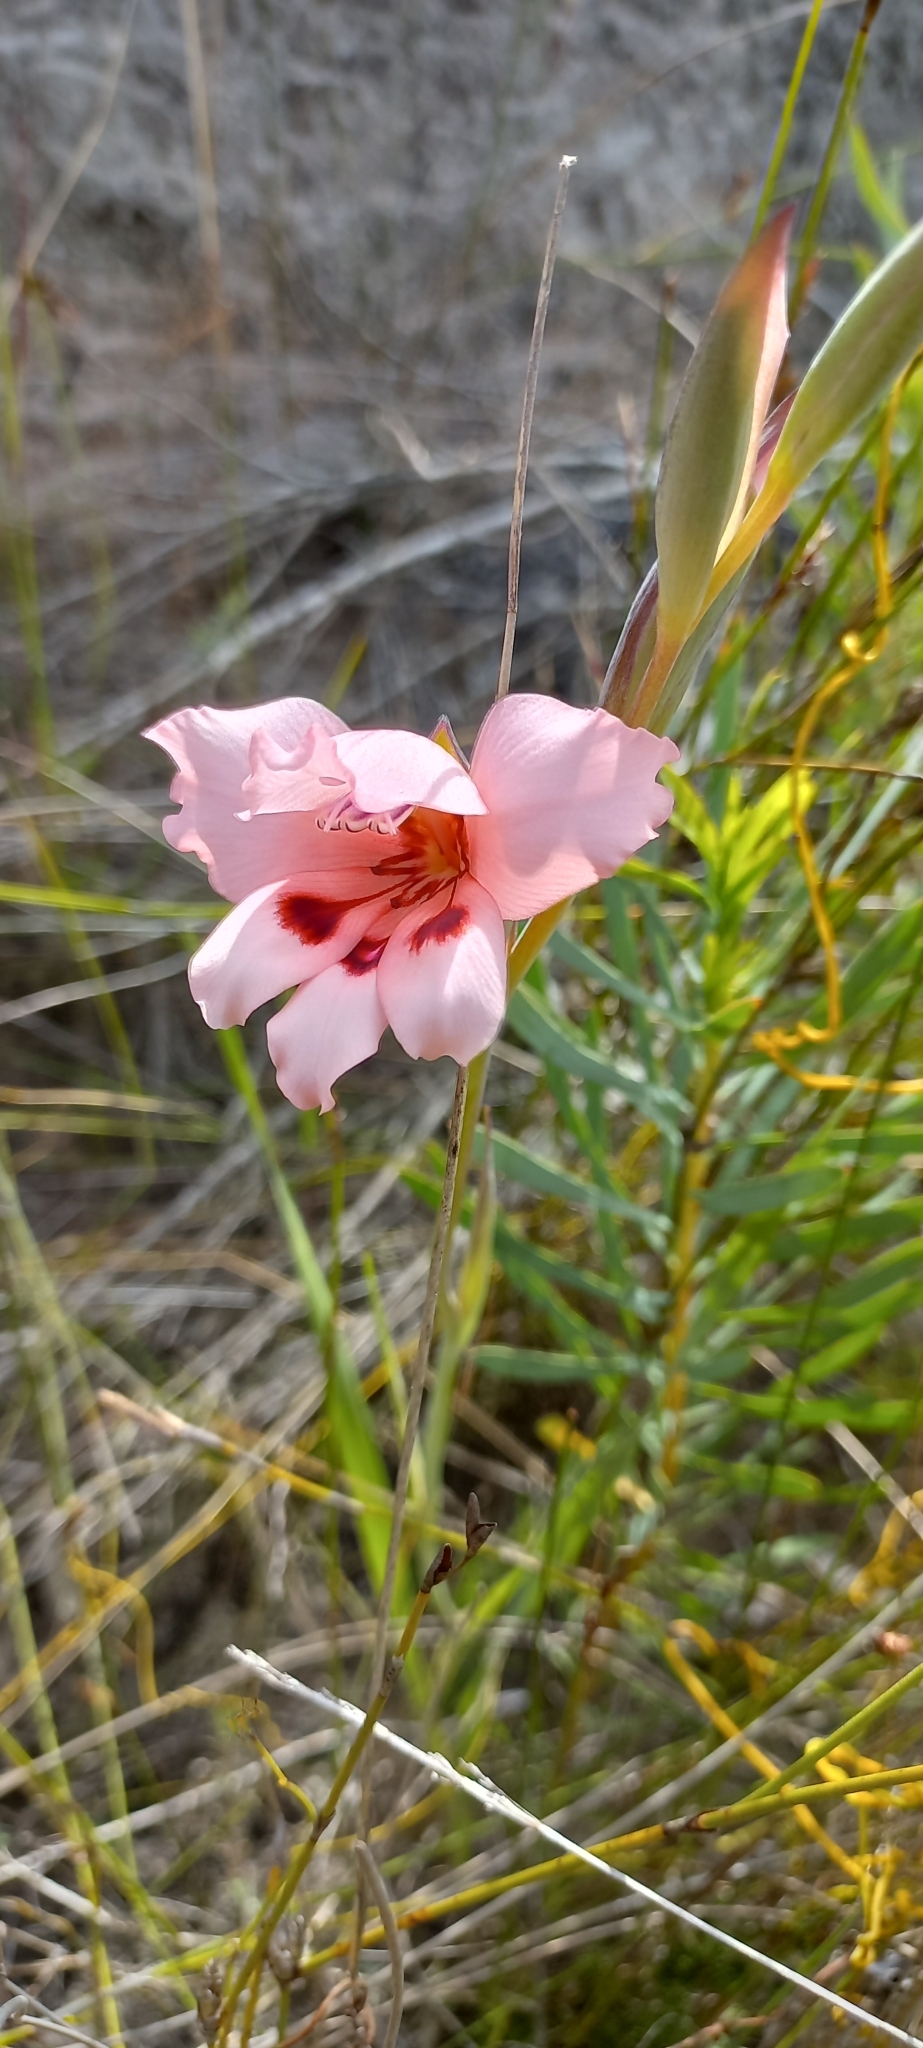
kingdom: Plantae
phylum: Tracheophyta
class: Liliopsida
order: Asparagales
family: Iridaceae
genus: Gladiolus
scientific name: Gladiolus carneus
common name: Painted-lady
